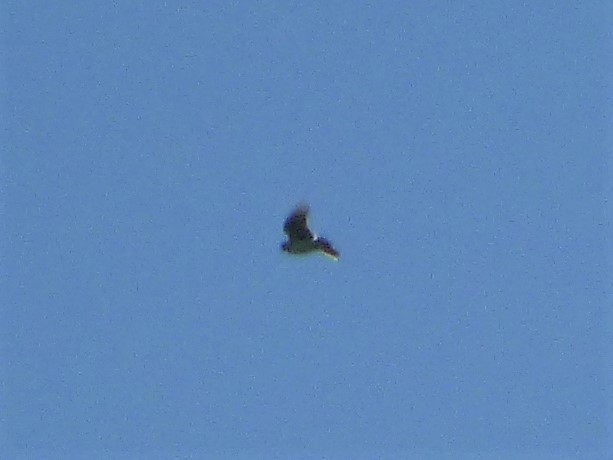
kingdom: Animalia
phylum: Chordata
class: Aves
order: Passeriformes
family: Alaudidae
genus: Alauda
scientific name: Alauda arvensis
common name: Eurasian skylark
